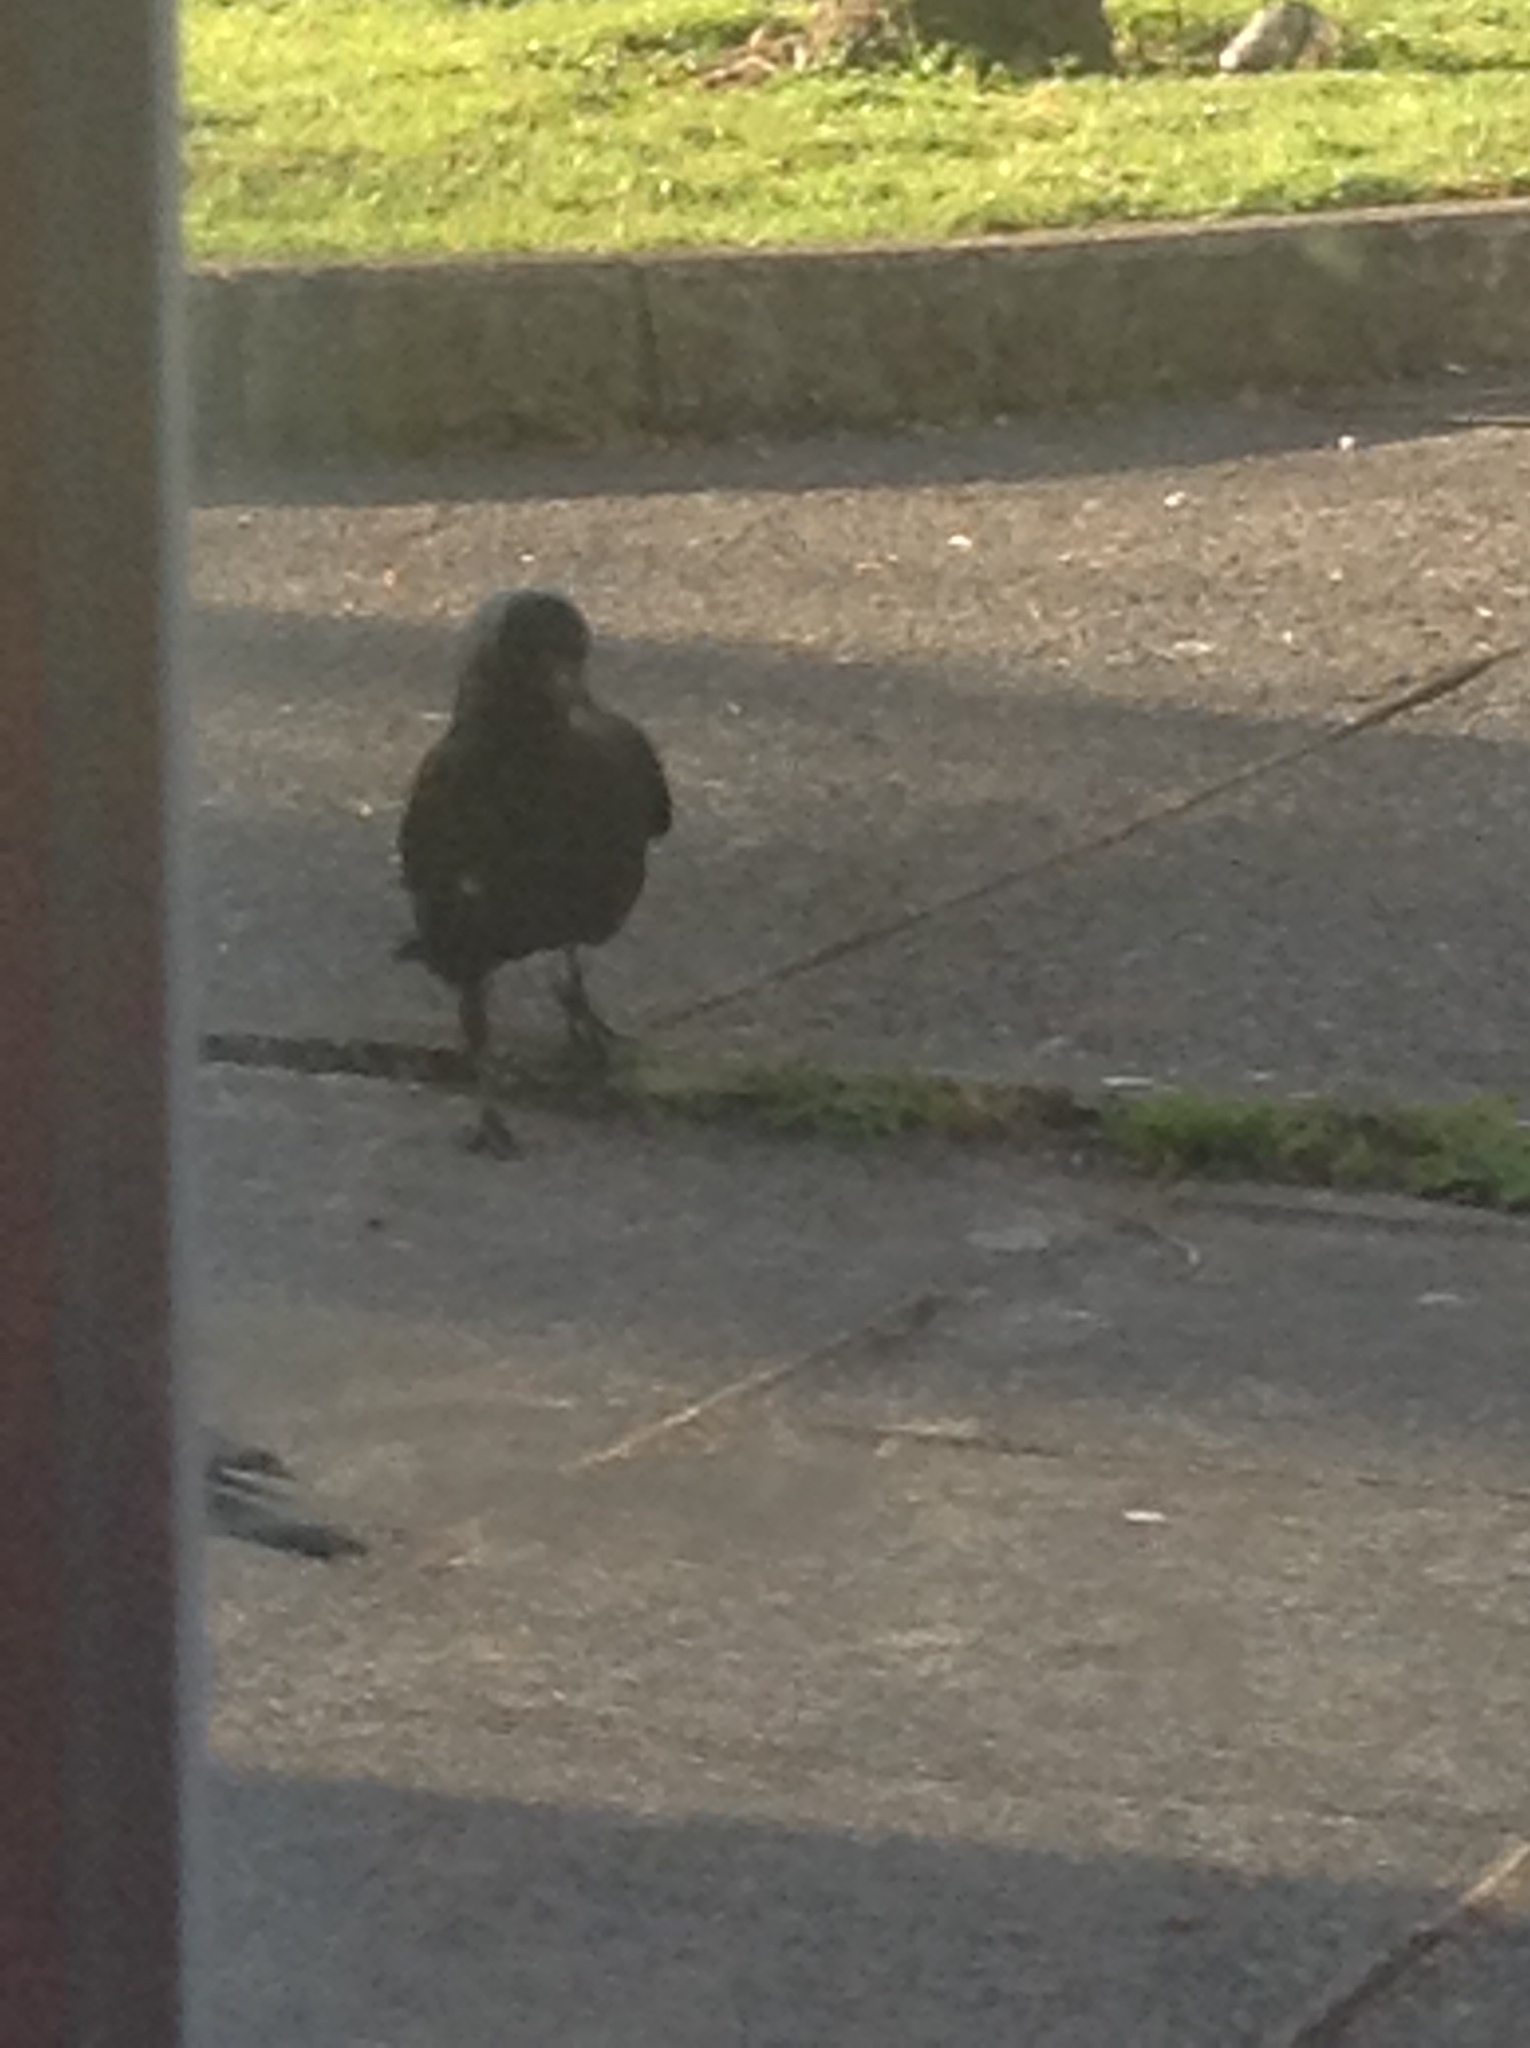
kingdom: Animalia
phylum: Chordata
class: Aves
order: Passeriformes
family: Corvidae
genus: Coloeus
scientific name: Coloeus monedula
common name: Western jackdaw
